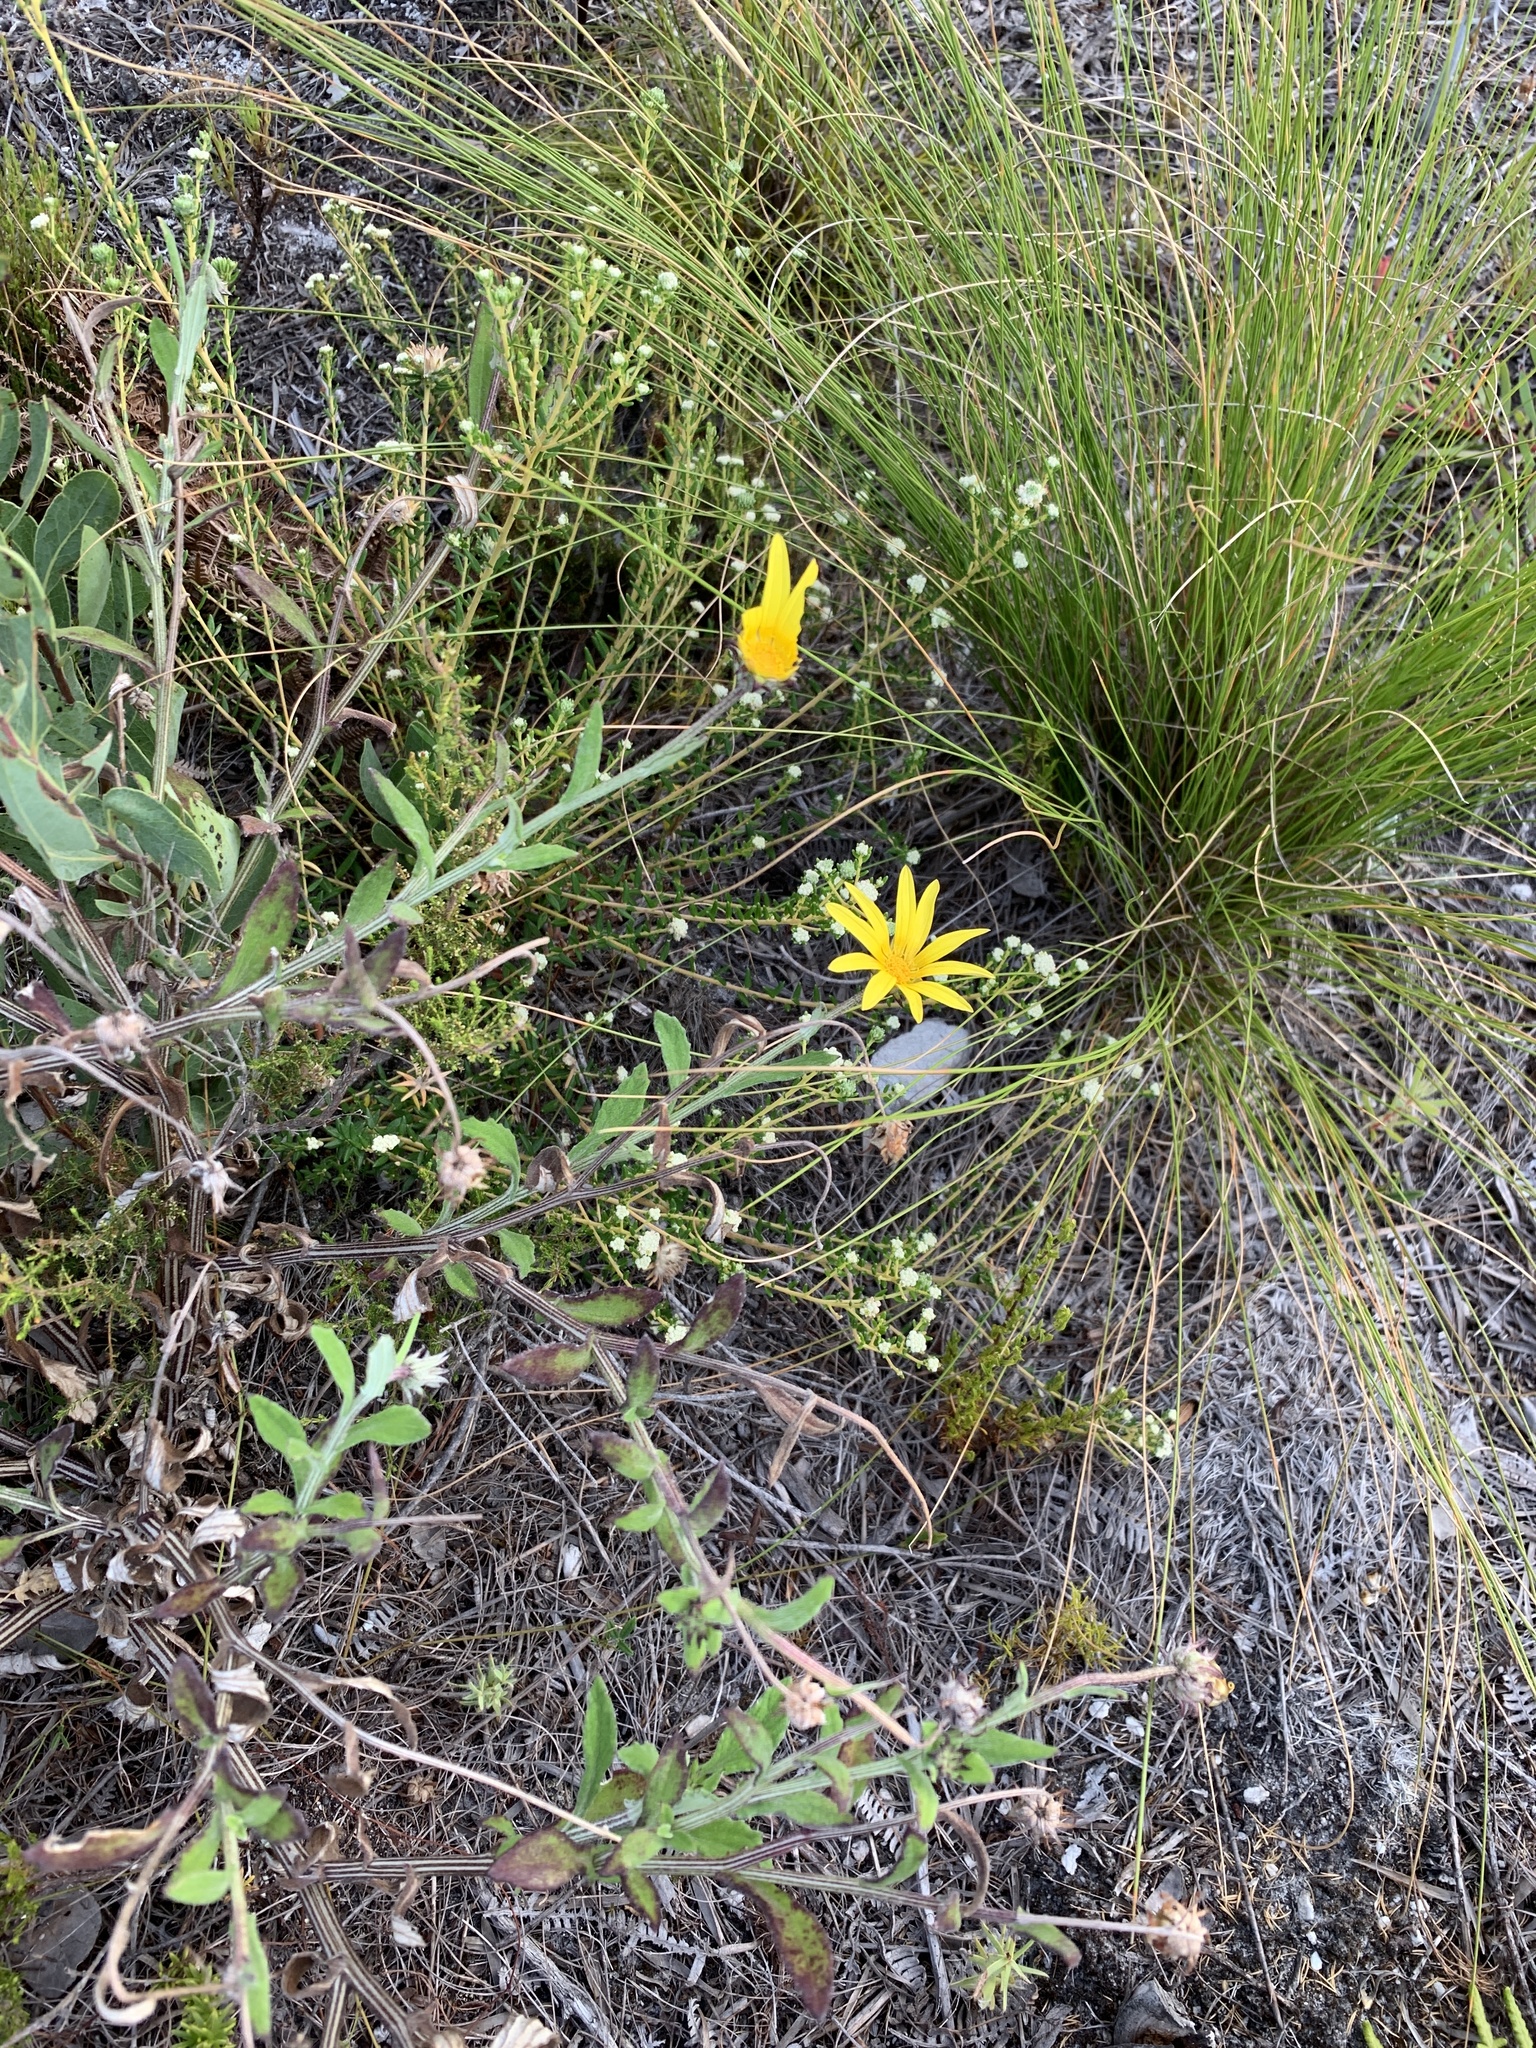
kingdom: Plantae
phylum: Tracheophyta
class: Magnoliopsida
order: Asterales
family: Asteraceae
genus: Arctotis
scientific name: Arctotis scabra
